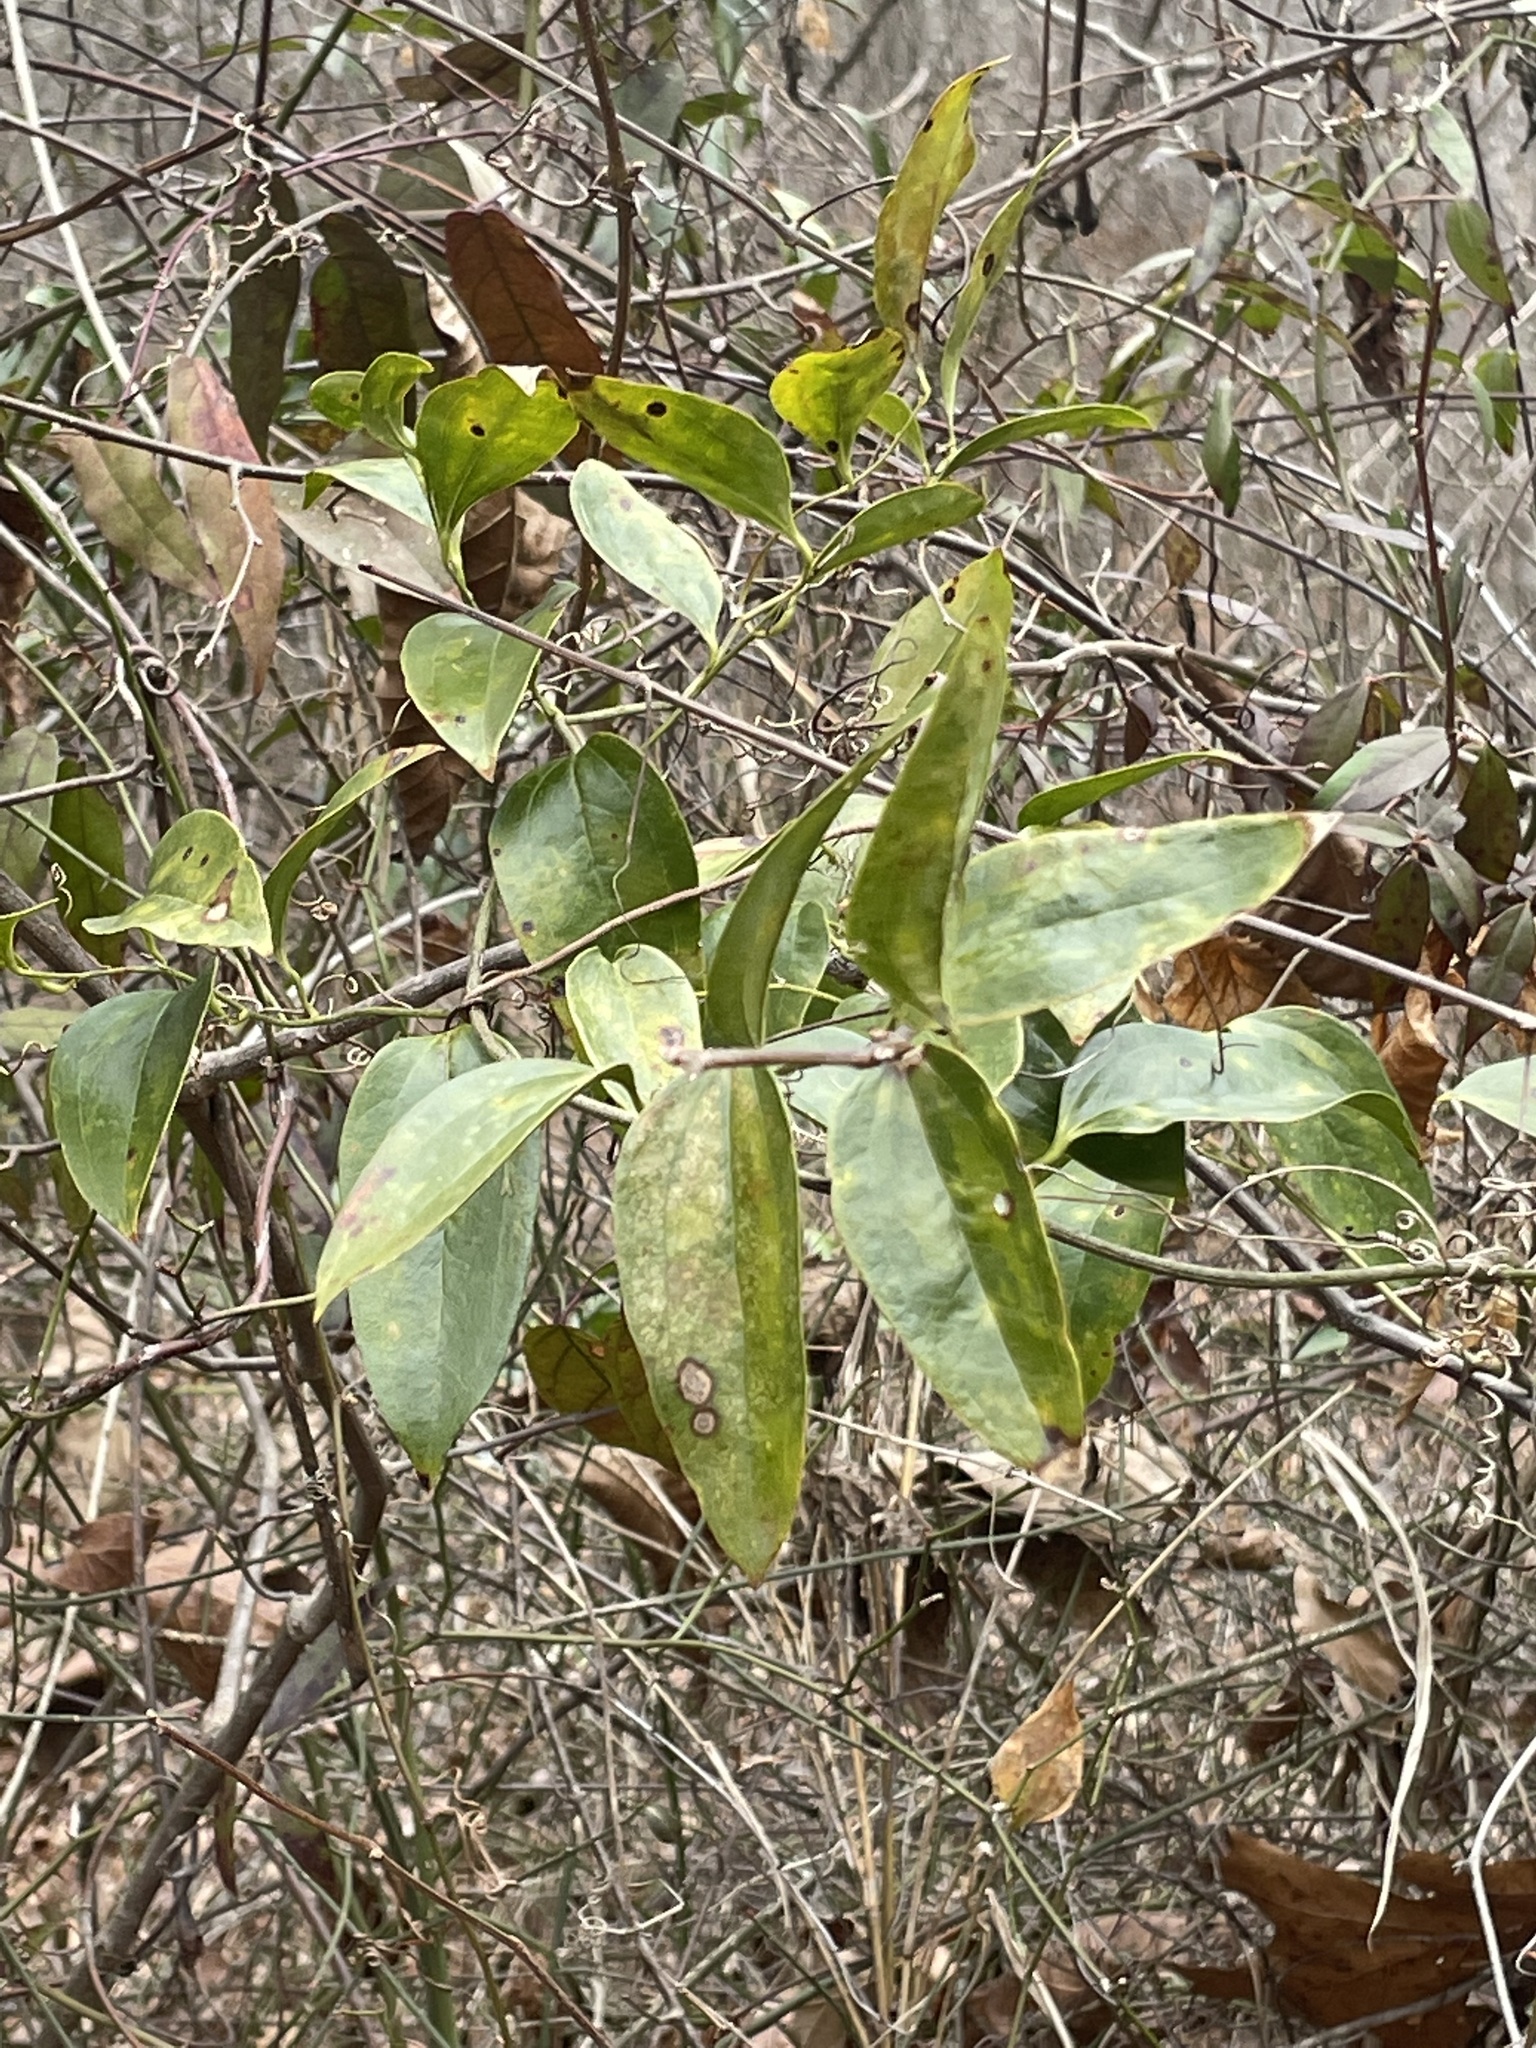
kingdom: Plantae
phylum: Tracheophyta
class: Liliopsida
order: Liliales
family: Smilacaceae
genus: Smilax
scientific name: Smilax maritima
